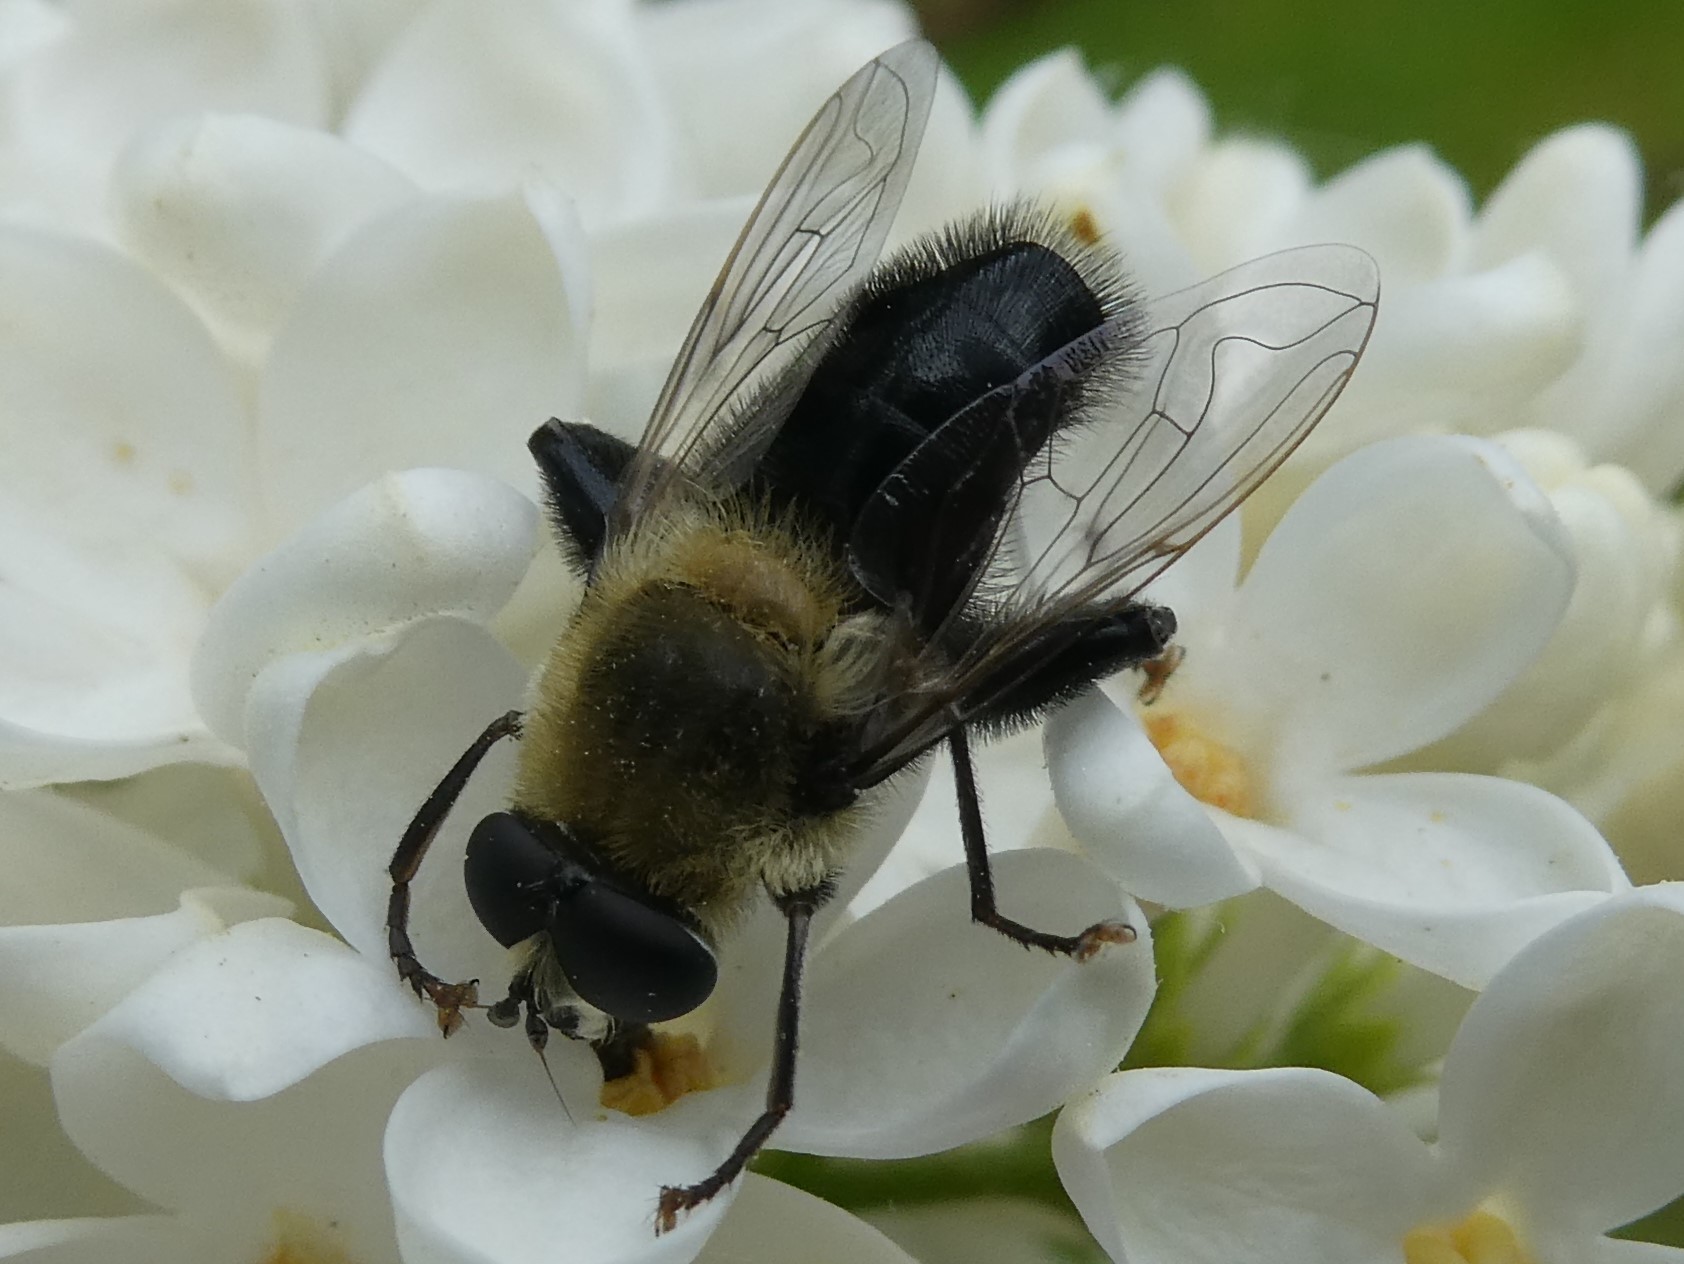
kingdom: Animalia
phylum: Arthropoda
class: Insecta
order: Diptera
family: Syrphidae
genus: Imatisma
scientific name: Imatisma bautias
